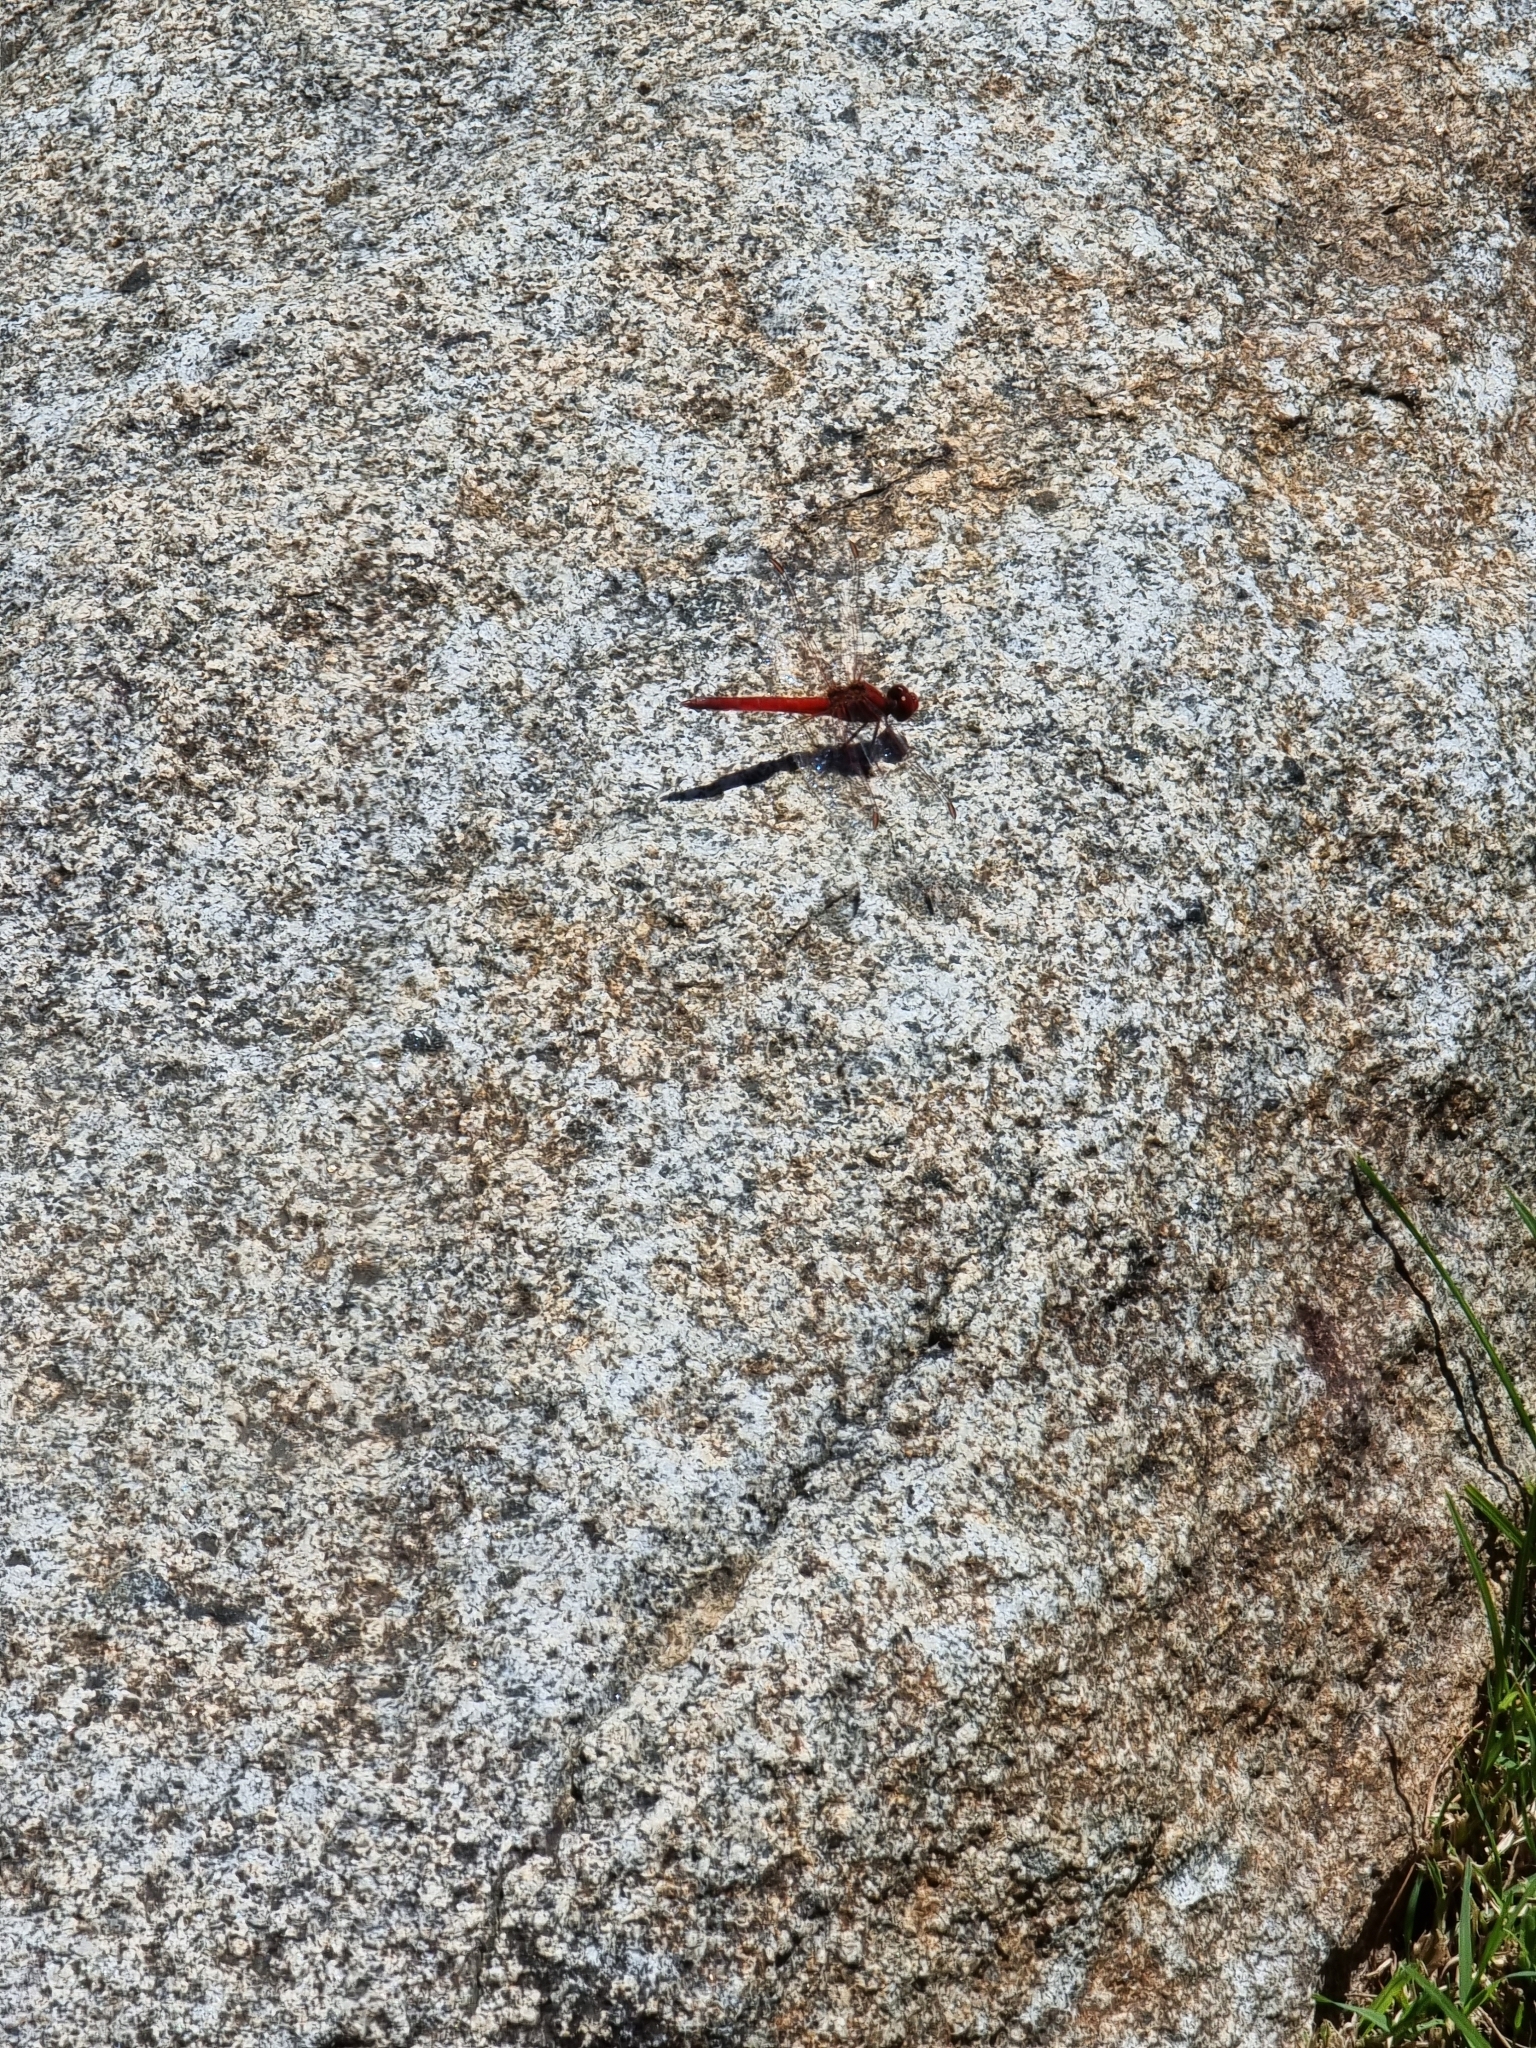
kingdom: Animalia
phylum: Arthropoda
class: Insecta
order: Odonata
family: Libellulidae
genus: Diplacodes
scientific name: Diplacodes haematodes
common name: Scarlet percher
